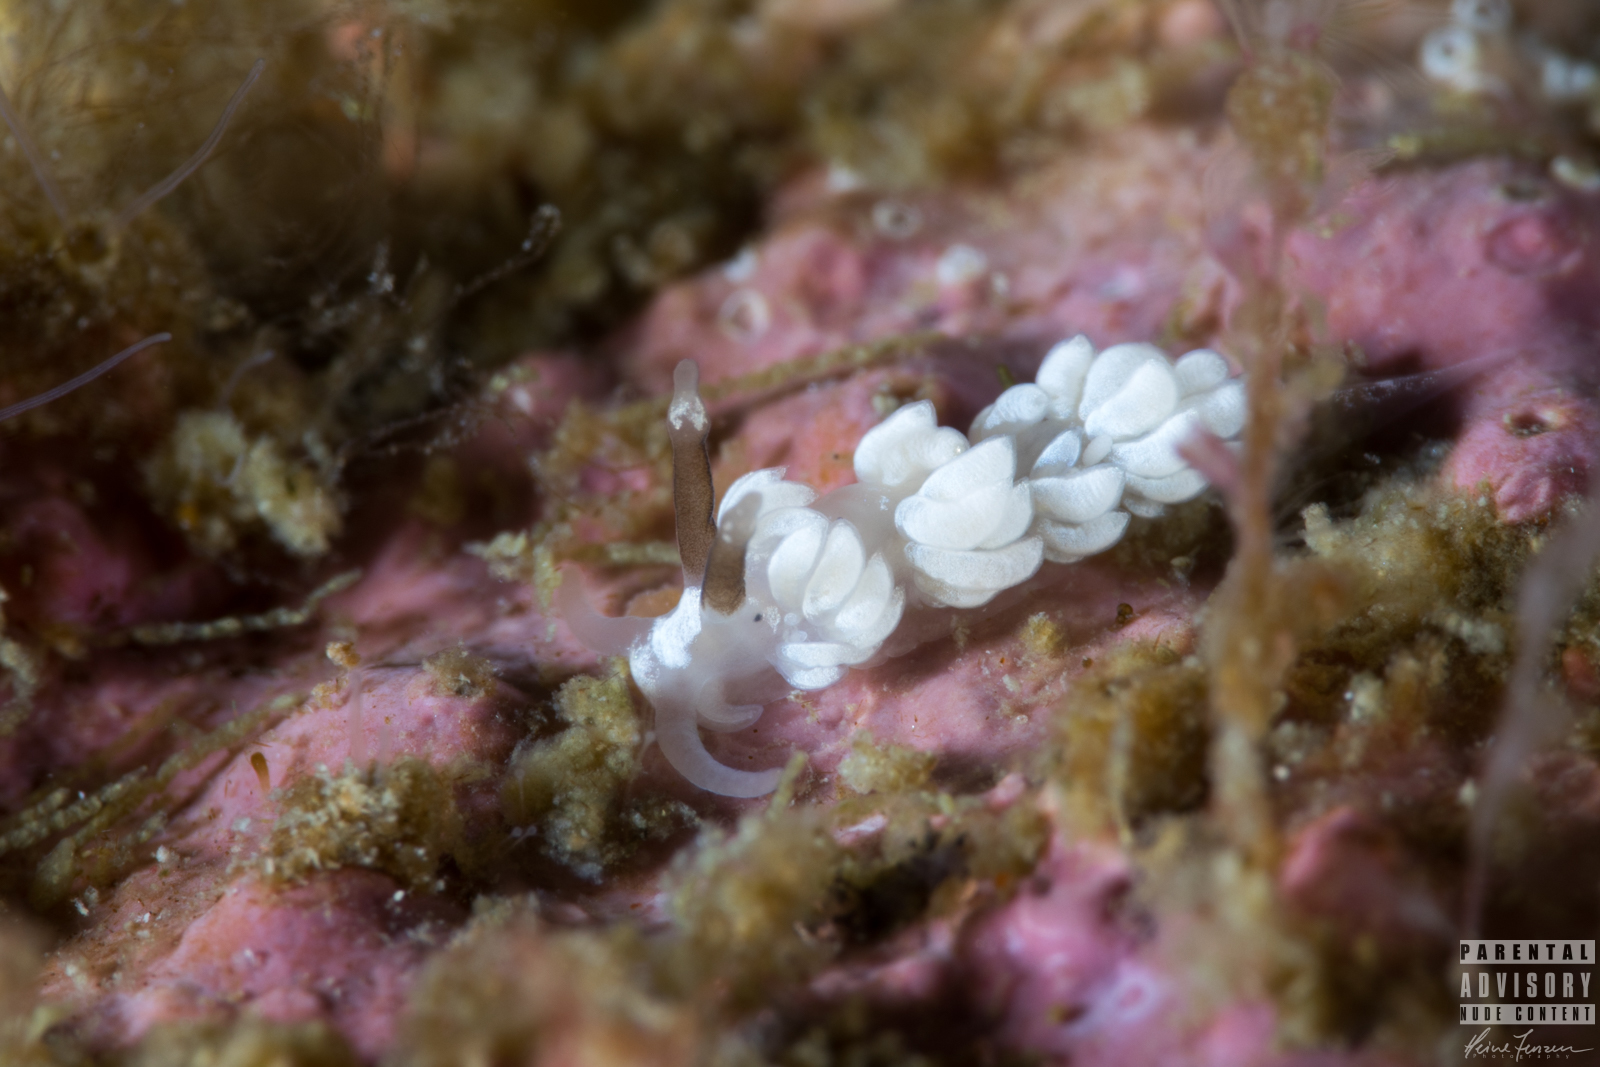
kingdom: Animalia
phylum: Mollusca
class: Gastropoda
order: Nudibranchia
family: Facelinidae
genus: Favorinus
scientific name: Favorinus branchialis
